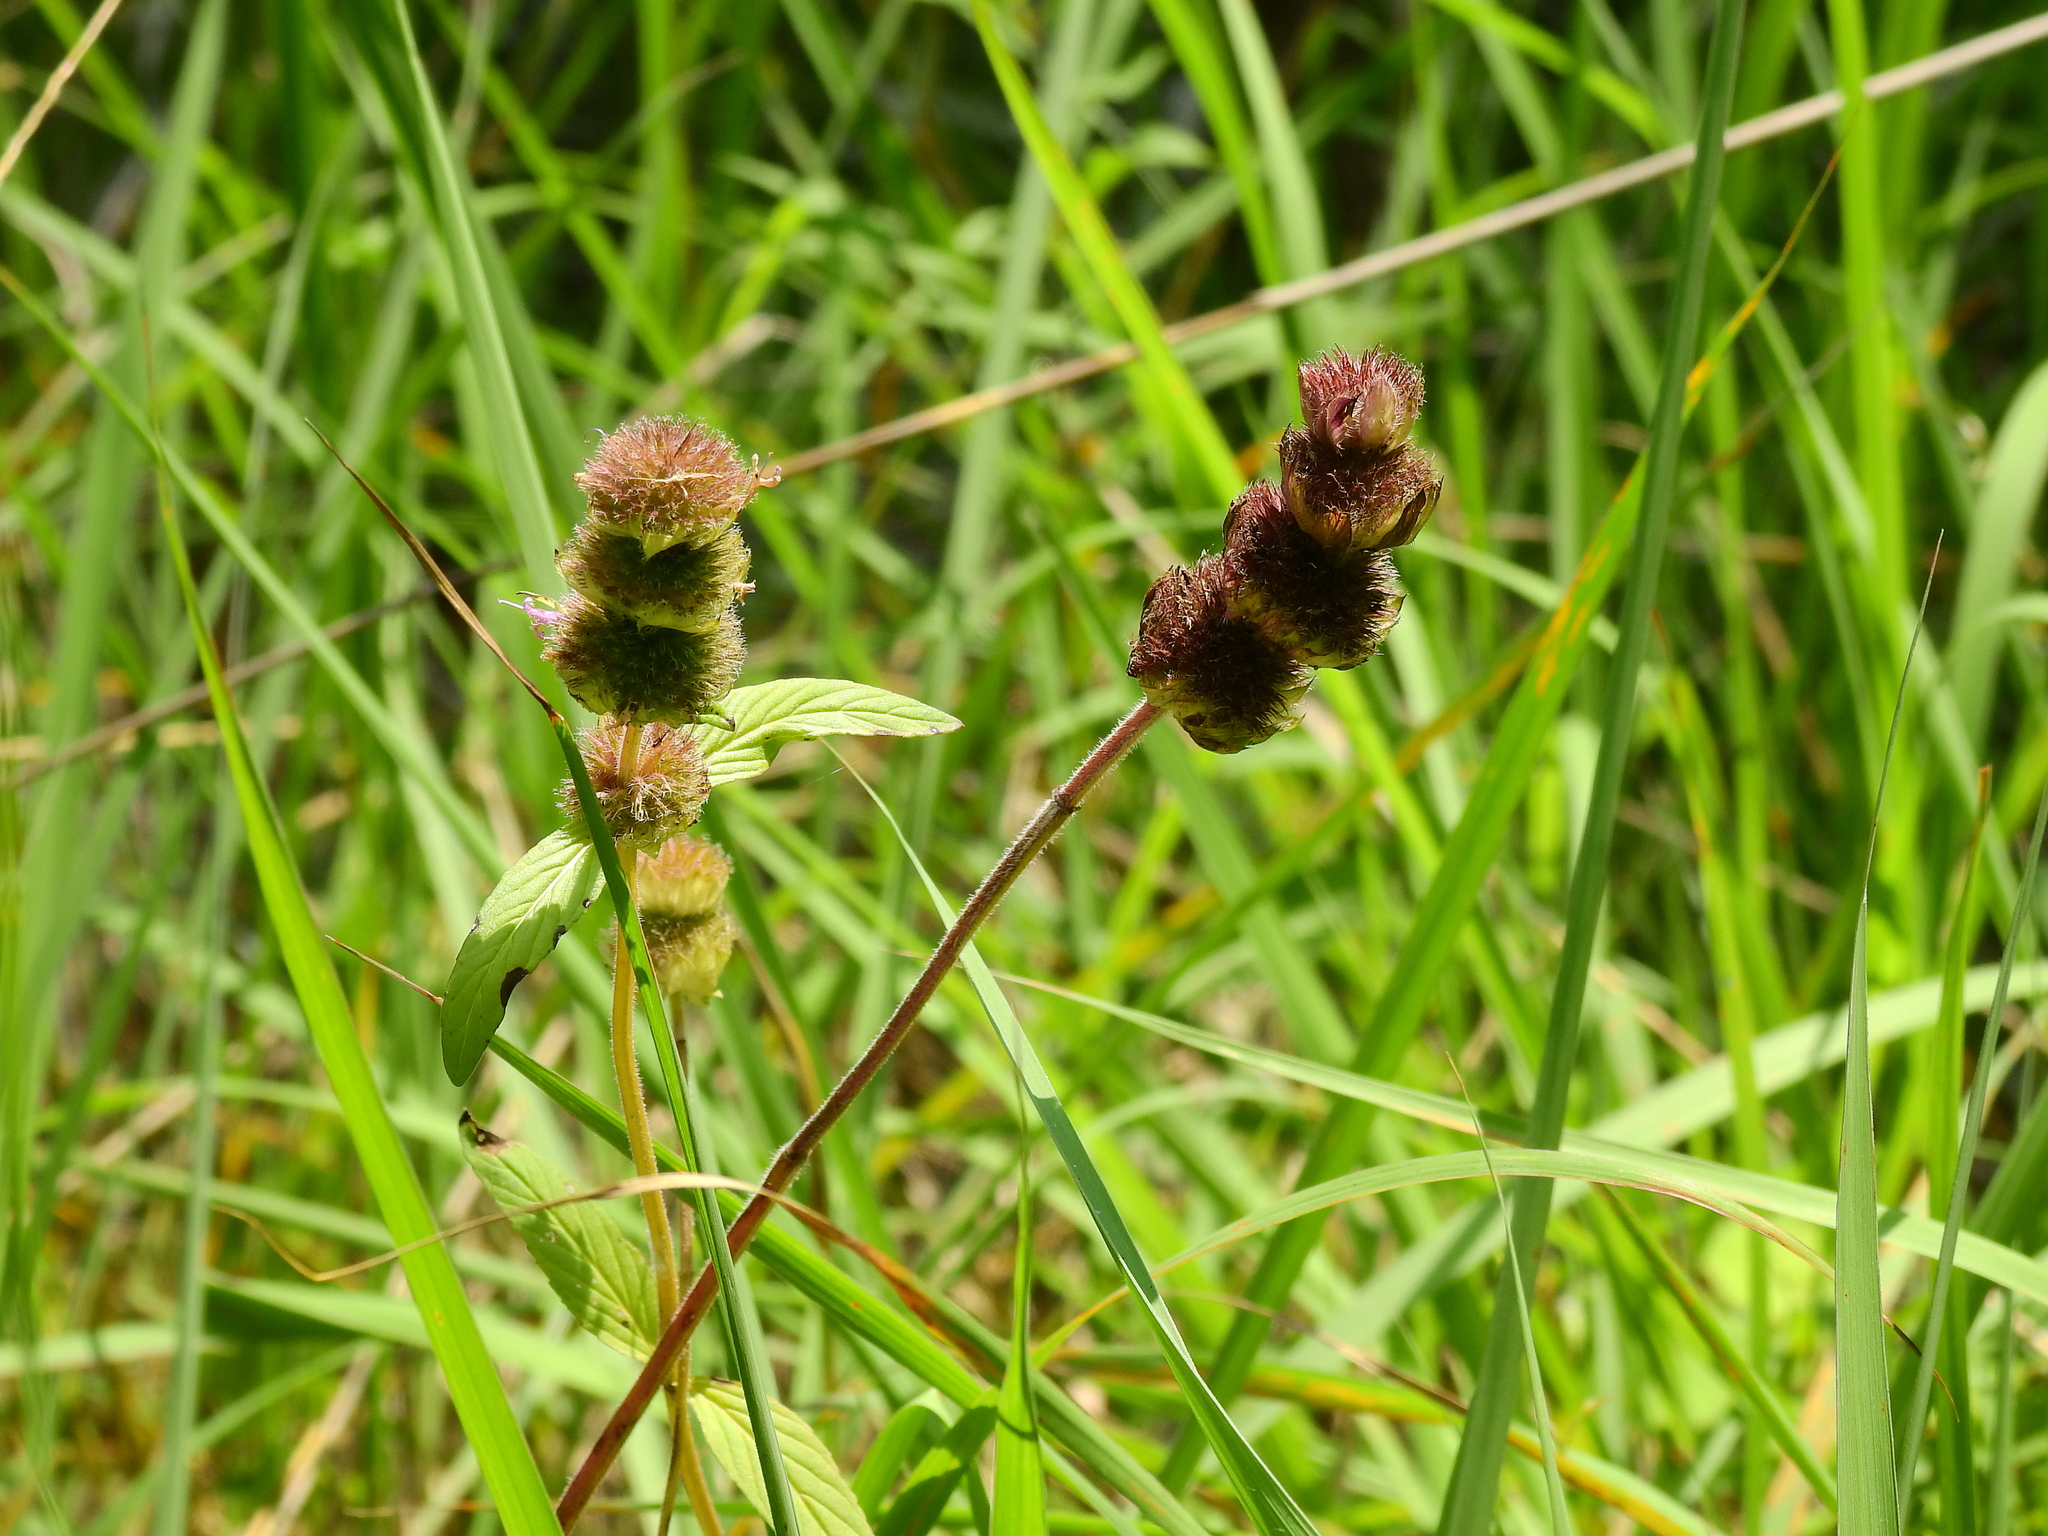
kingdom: Plantae
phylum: Tracheophyta
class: Magnoliopsida
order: Lamiales
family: Lamiaceae
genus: Blephilia
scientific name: Blephilia ciliata
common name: Downy blephilia
